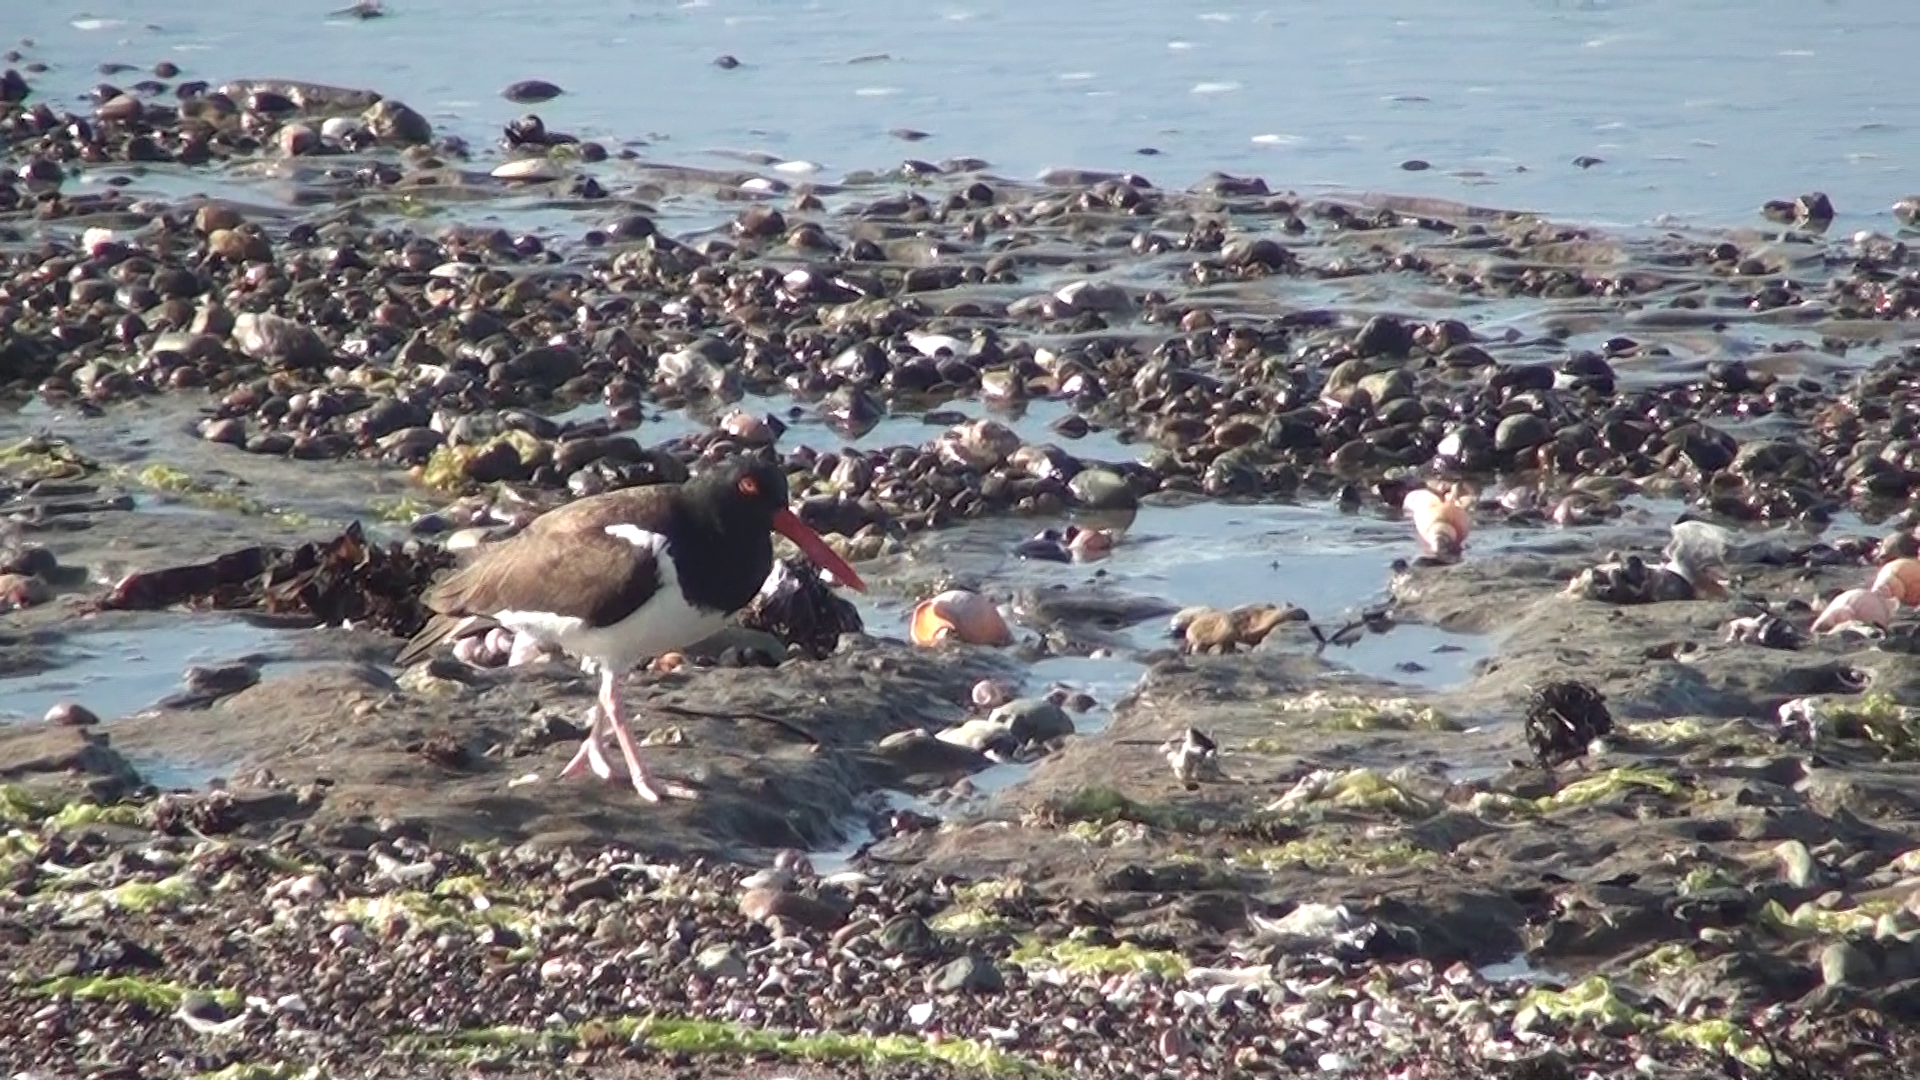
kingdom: Animalia
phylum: Chordata
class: Aves
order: Charadriiformes
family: Haematopodidae
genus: Haematopus
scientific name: Haematopus palliatus
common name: American oystercatcher
